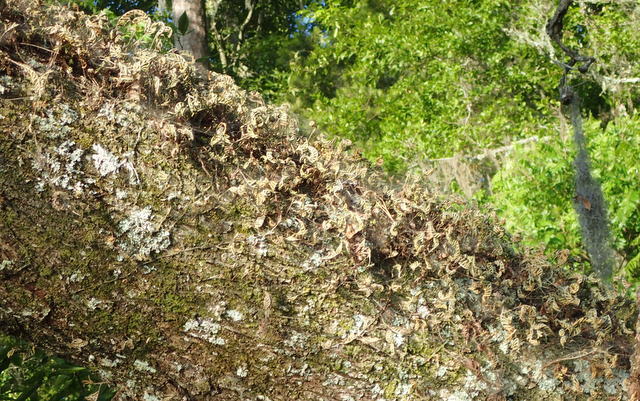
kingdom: Plantae
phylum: Tracheophyta
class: Polypodiopsida
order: Polypodiales
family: Polypodiaceae
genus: Pleopeltis
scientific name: Pleopeltis michauxiana
